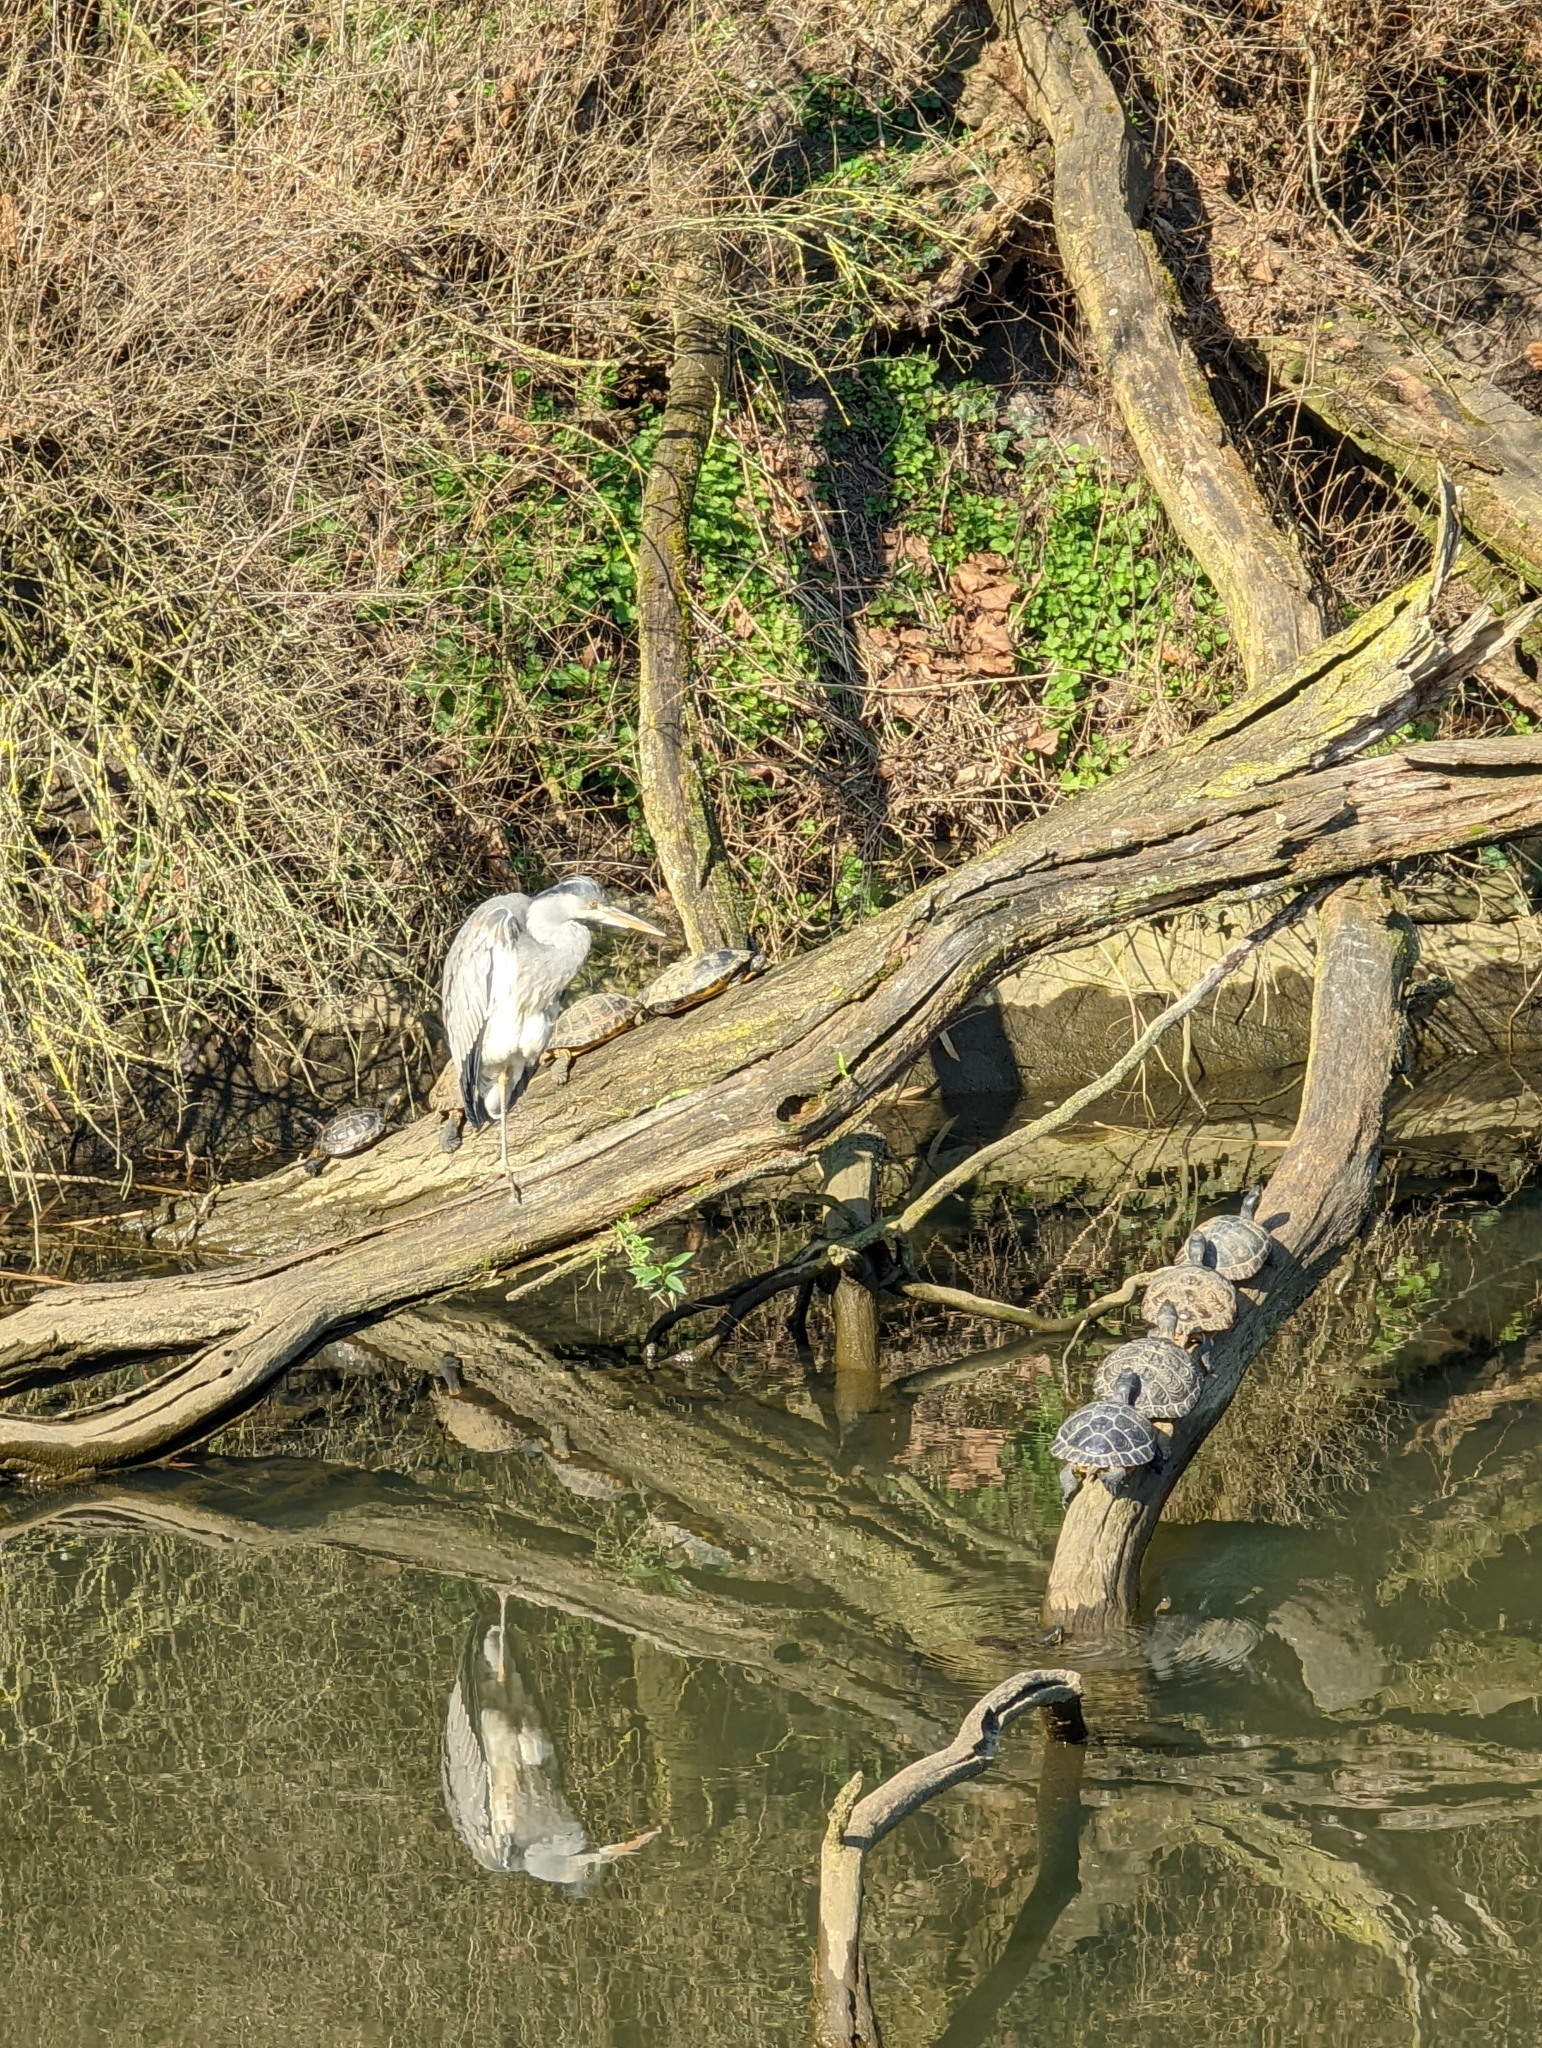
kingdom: Animalia
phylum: Chordata
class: Aves
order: Pelecaniformes
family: Ardeidae
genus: Ardea
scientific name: Ardea cinerea
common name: Grey heron
